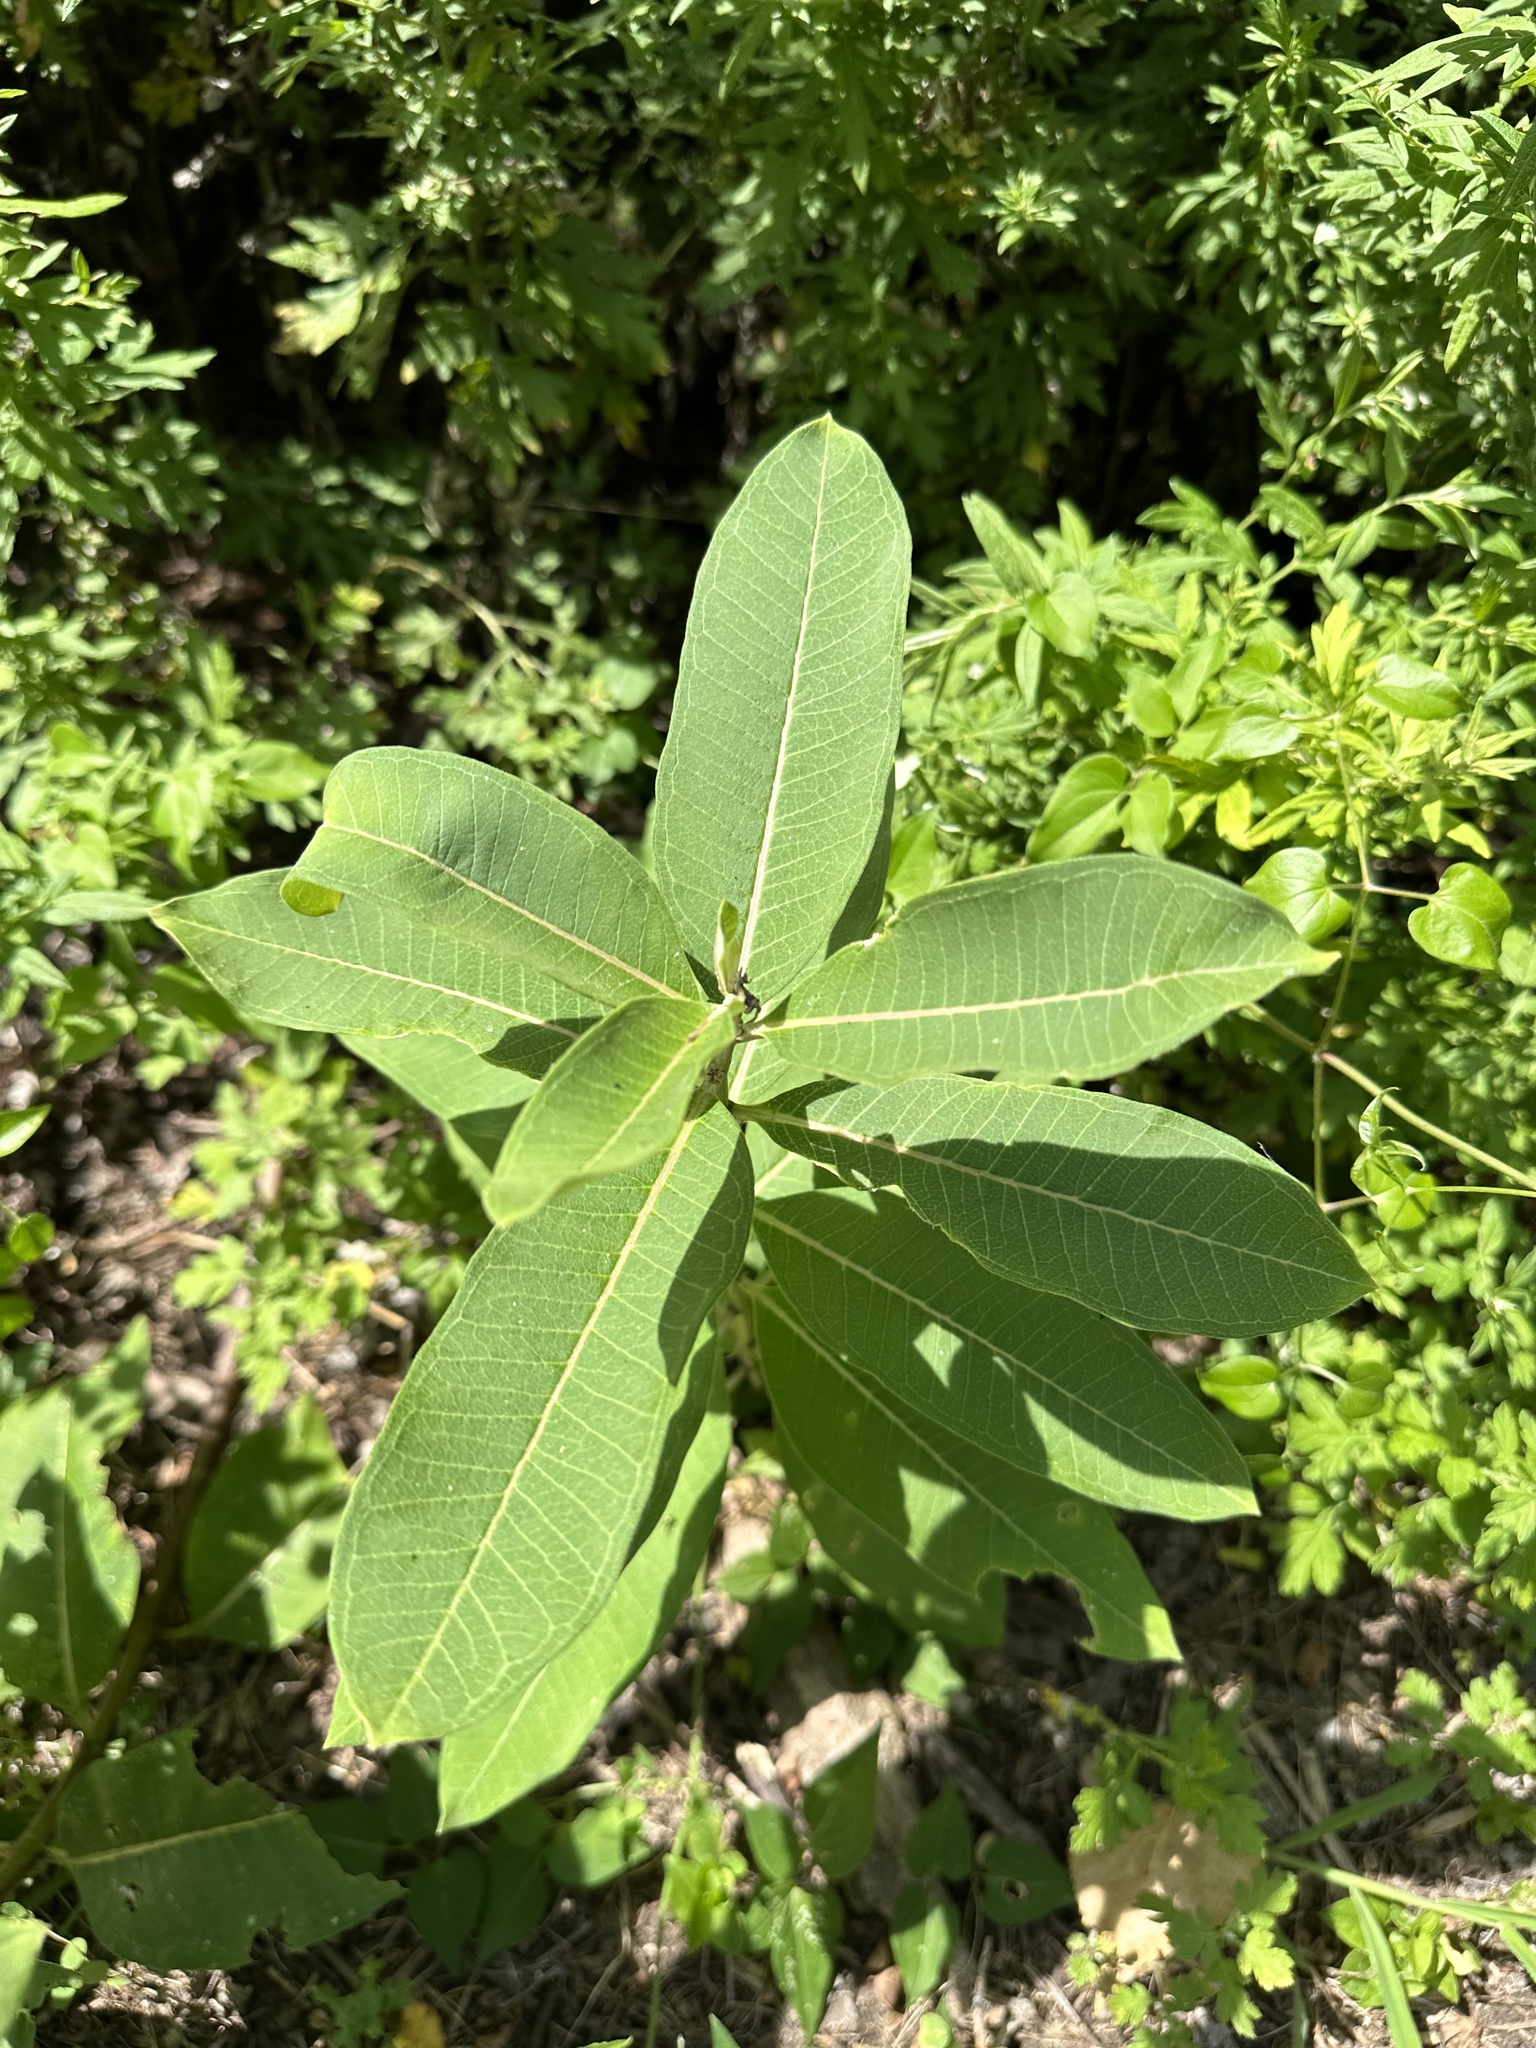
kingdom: Plantae
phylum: Tracheophyta
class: Magnoliopsida
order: Gentianales
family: Apocynaceae
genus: Asclepias
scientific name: Asclepias syriaca
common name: Common milkweed
